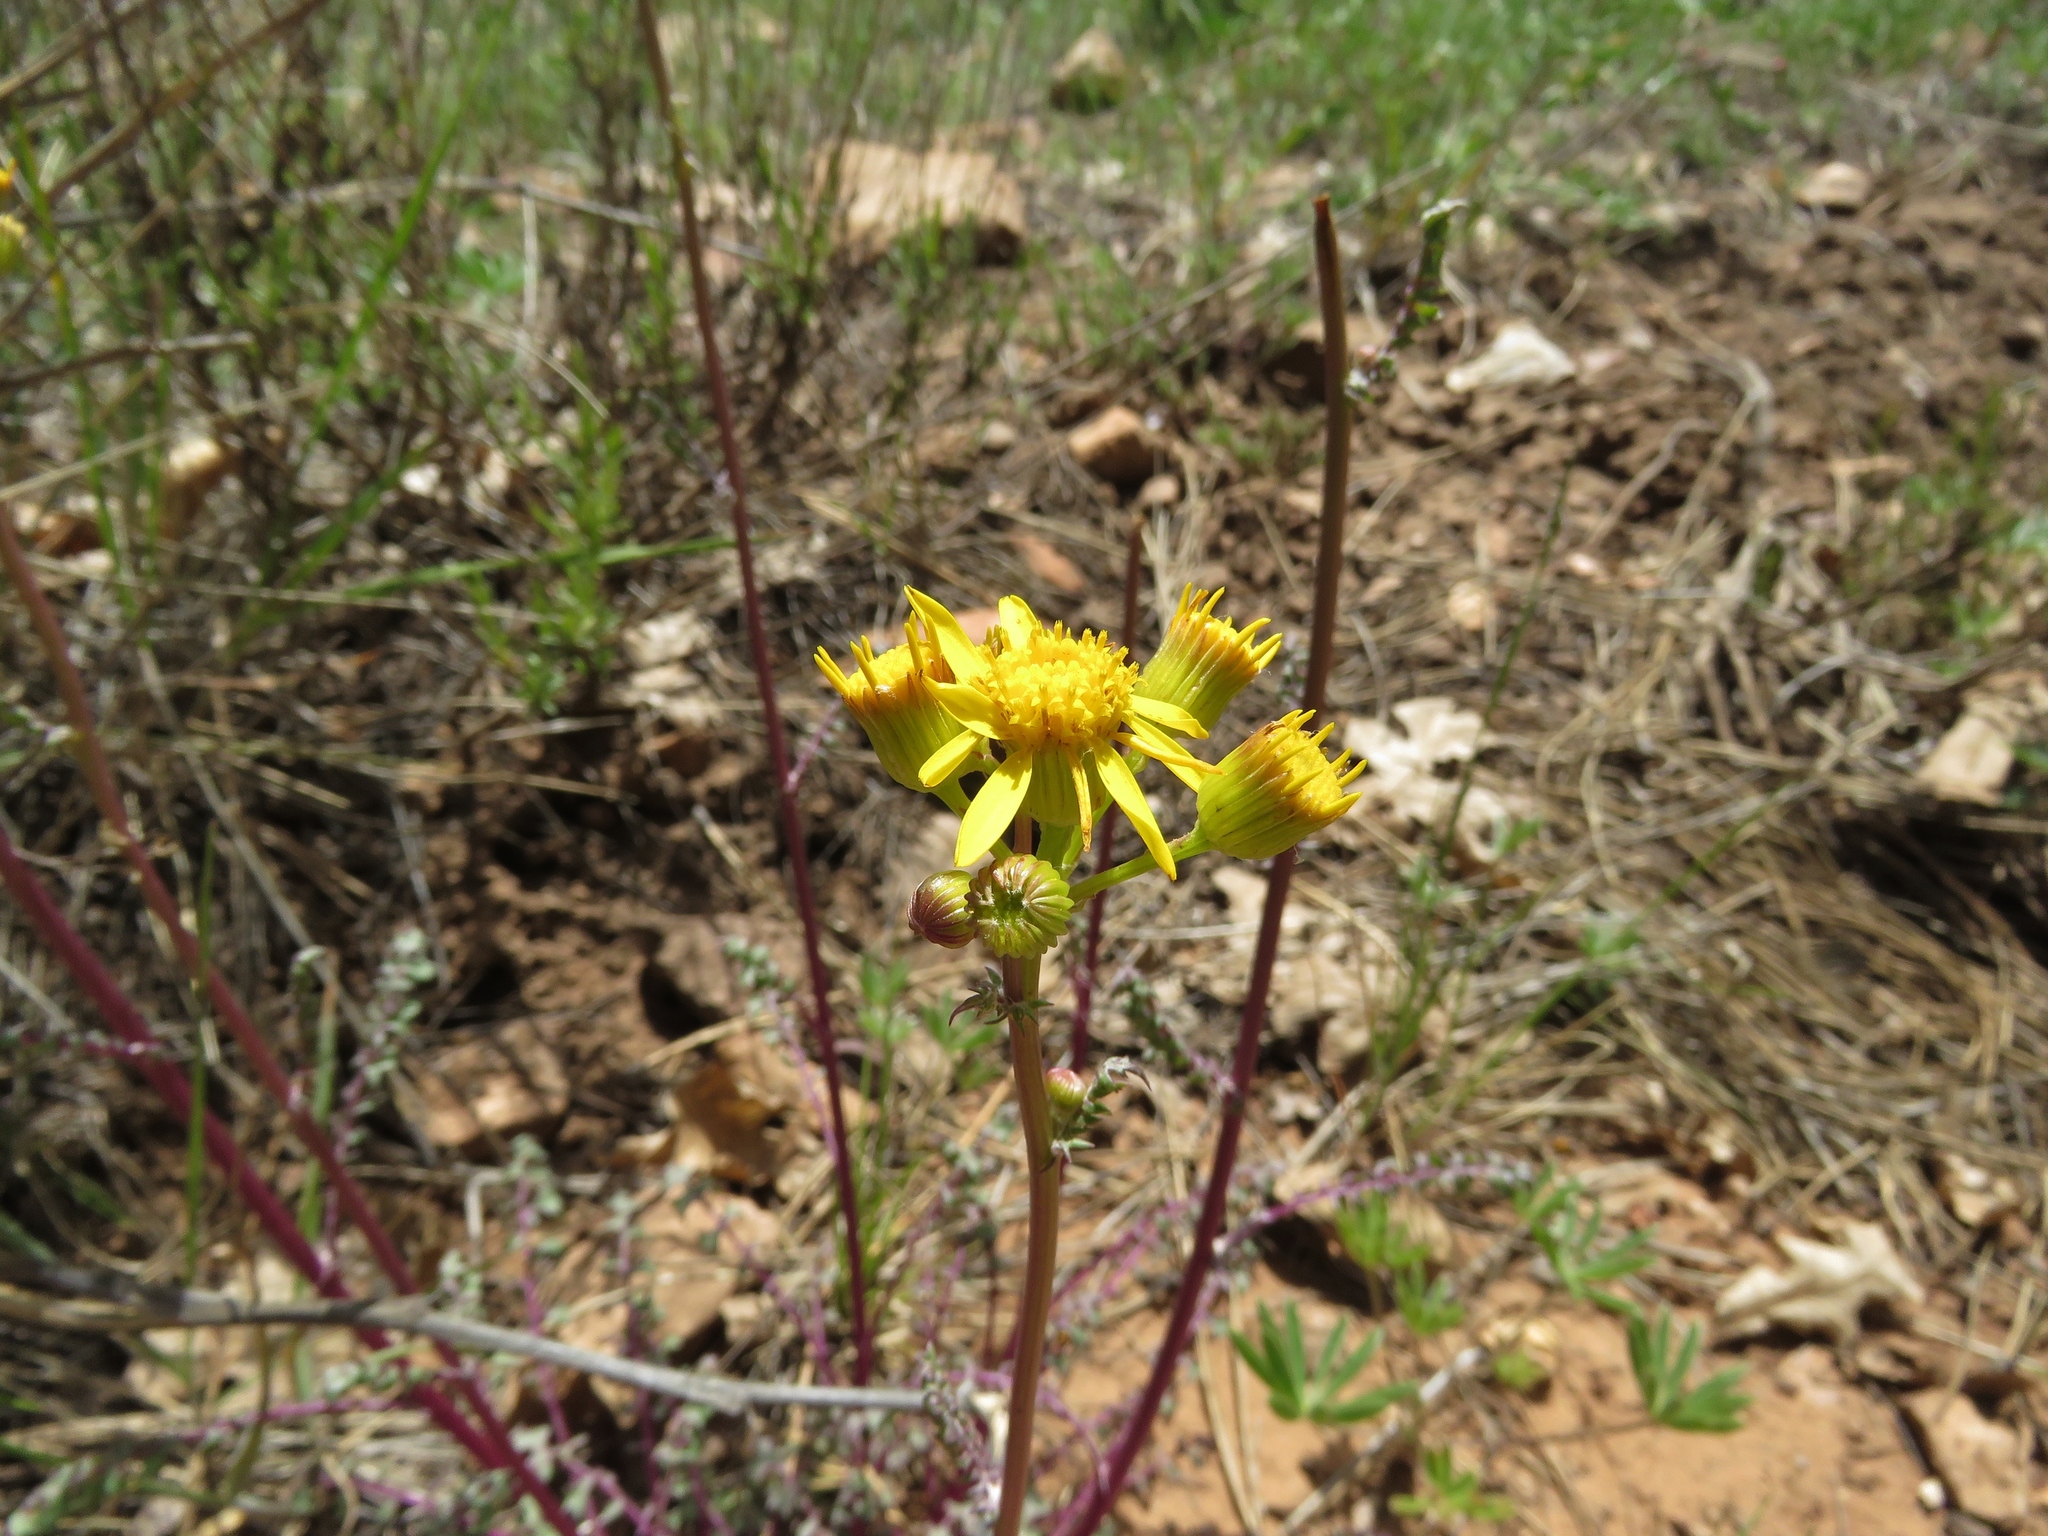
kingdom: Plantae
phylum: Tracheophyta
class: Magnoliopsida
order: Asterales
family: Asteraceae
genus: Packera
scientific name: Packera multilobata
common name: Lobe-leaf groundsel
